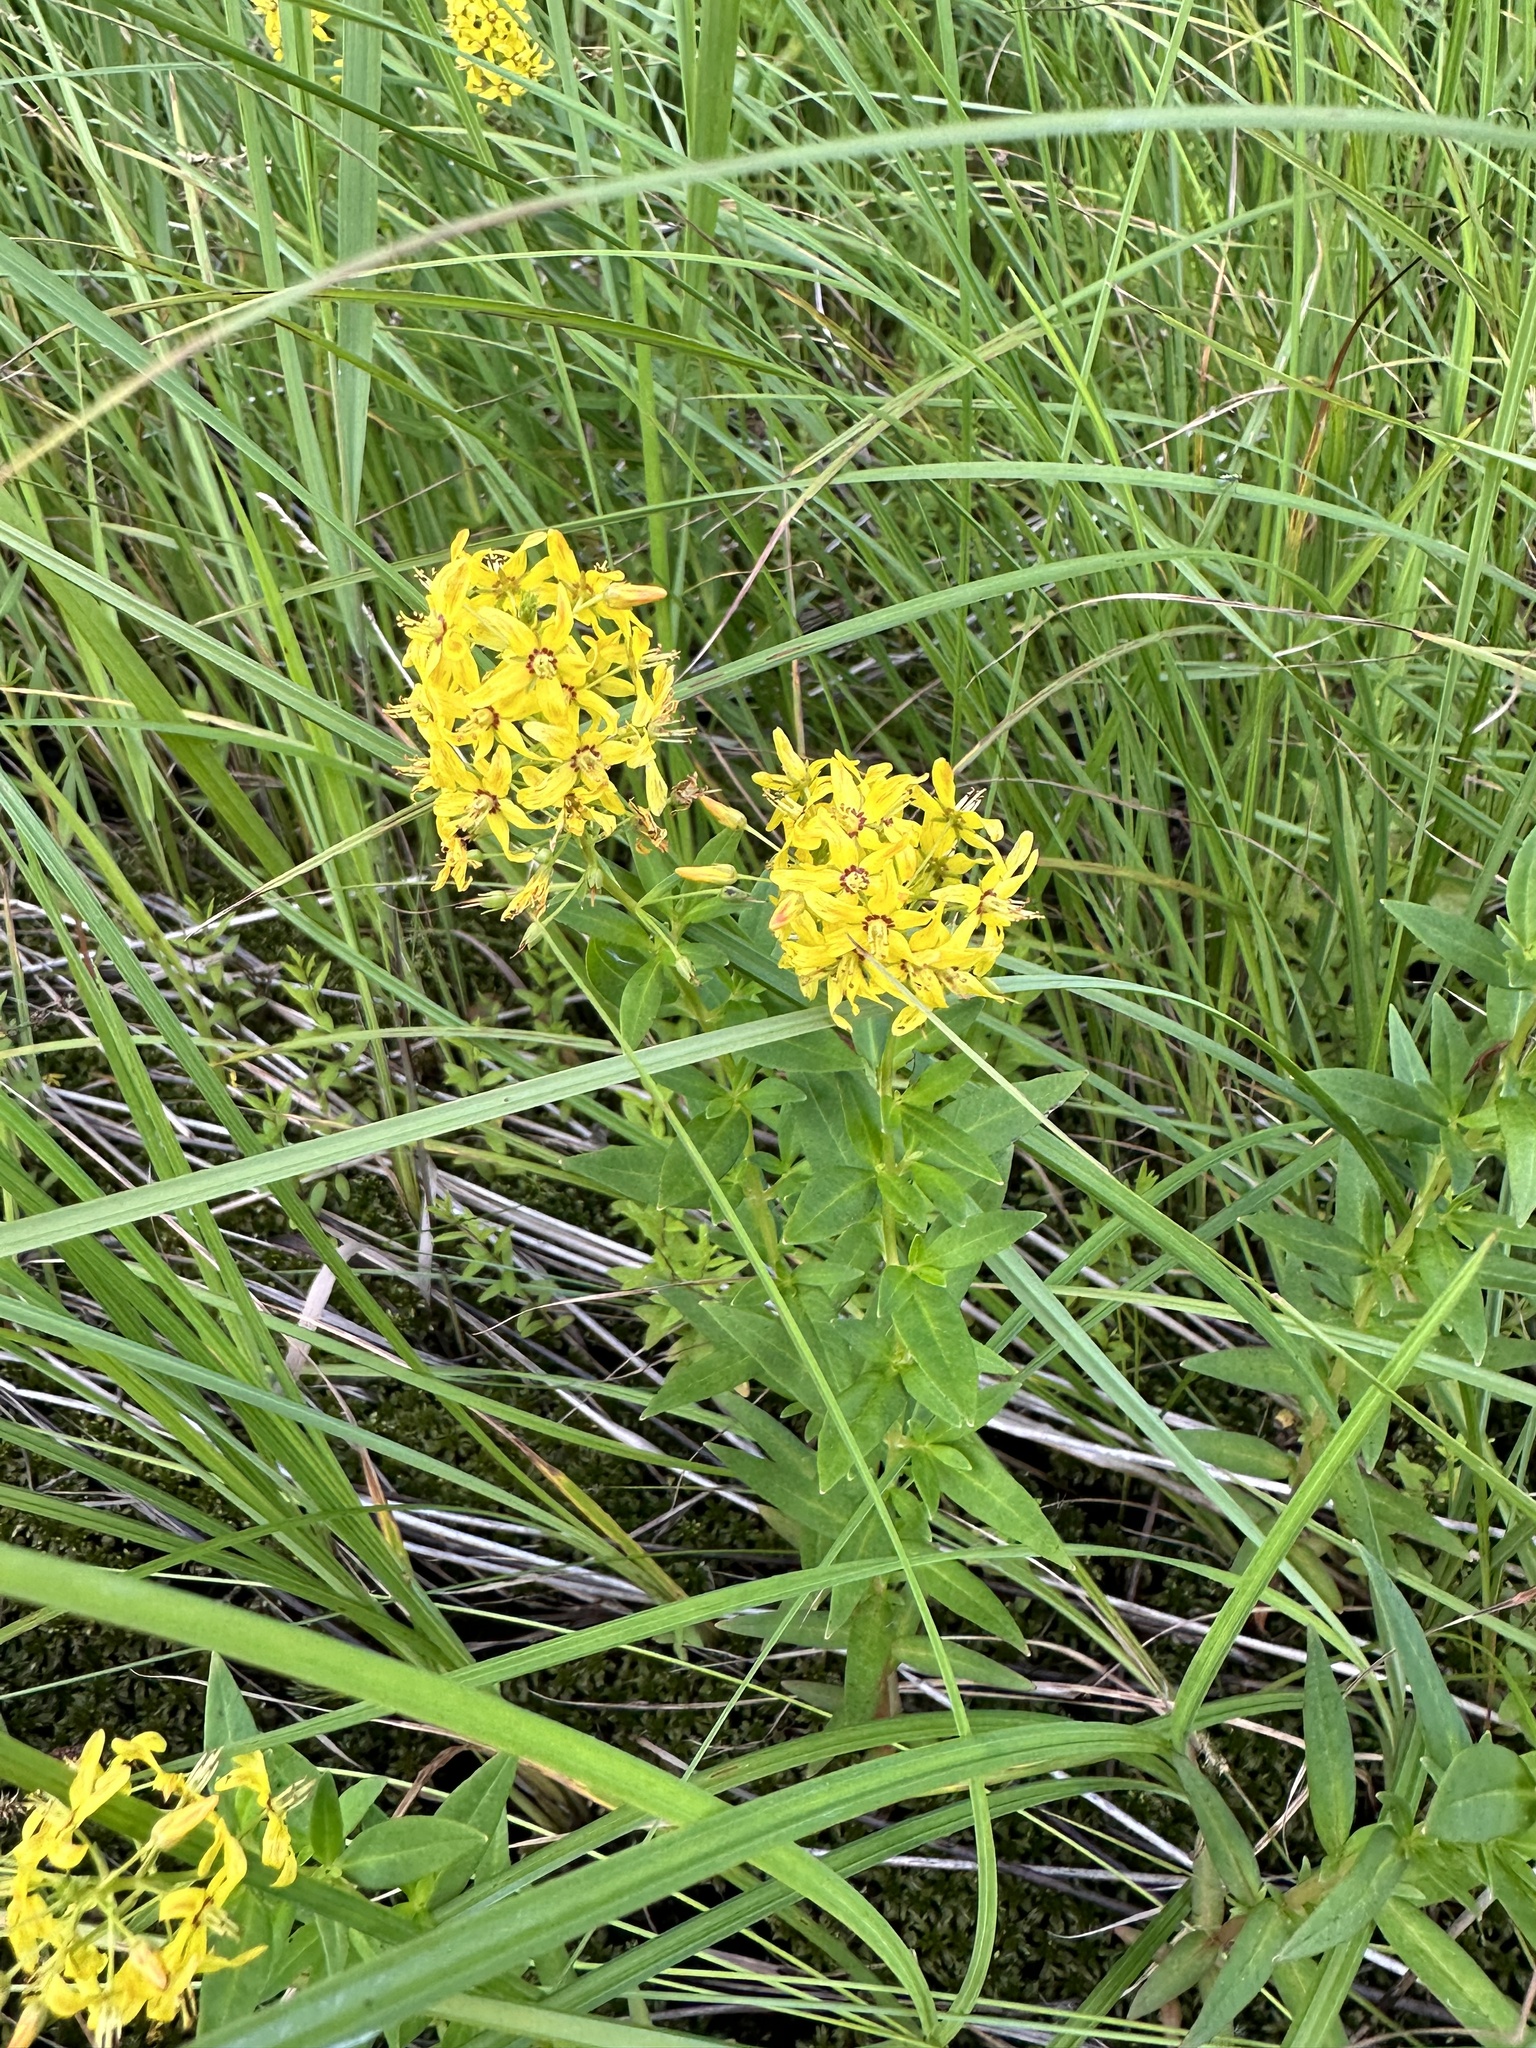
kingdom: Plantae
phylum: Tracheophyta
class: Magnoliopsida
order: Ericales
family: Primulaceae
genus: Lysimachia
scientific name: Lysimachia terrestris
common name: Lake loosestrife
